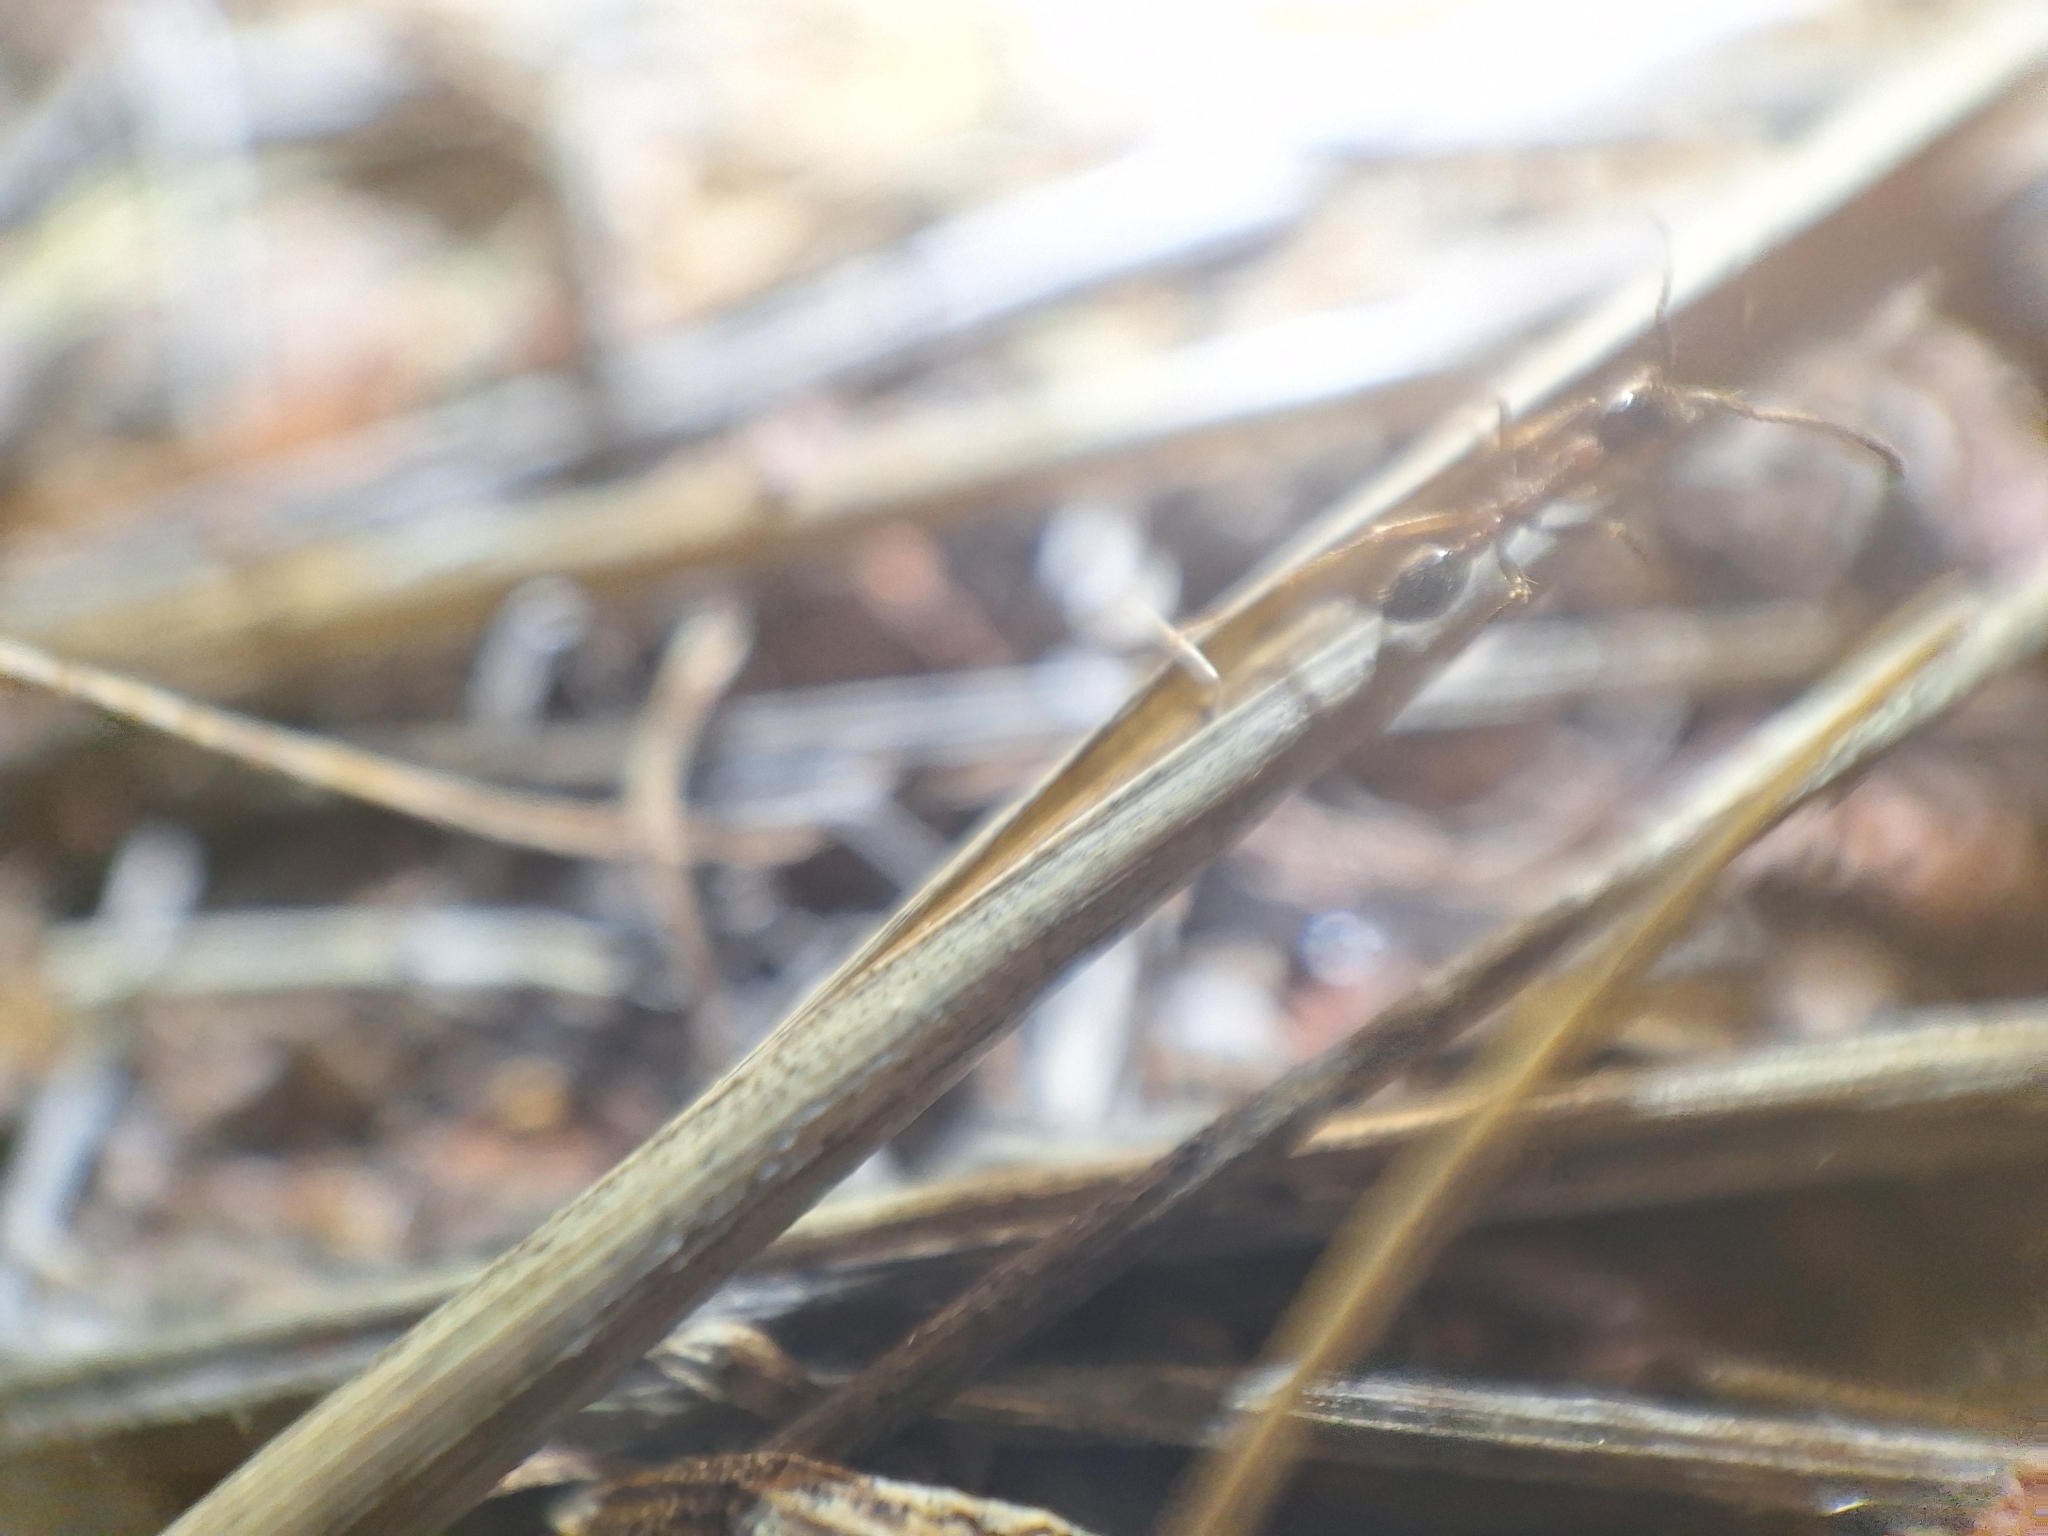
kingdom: Animalia
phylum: Arthropoda
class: Insecta
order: Hymenoptera
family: Formicidae
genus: Neivamyrmex
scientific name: Neivamyrmex melanocephalus
